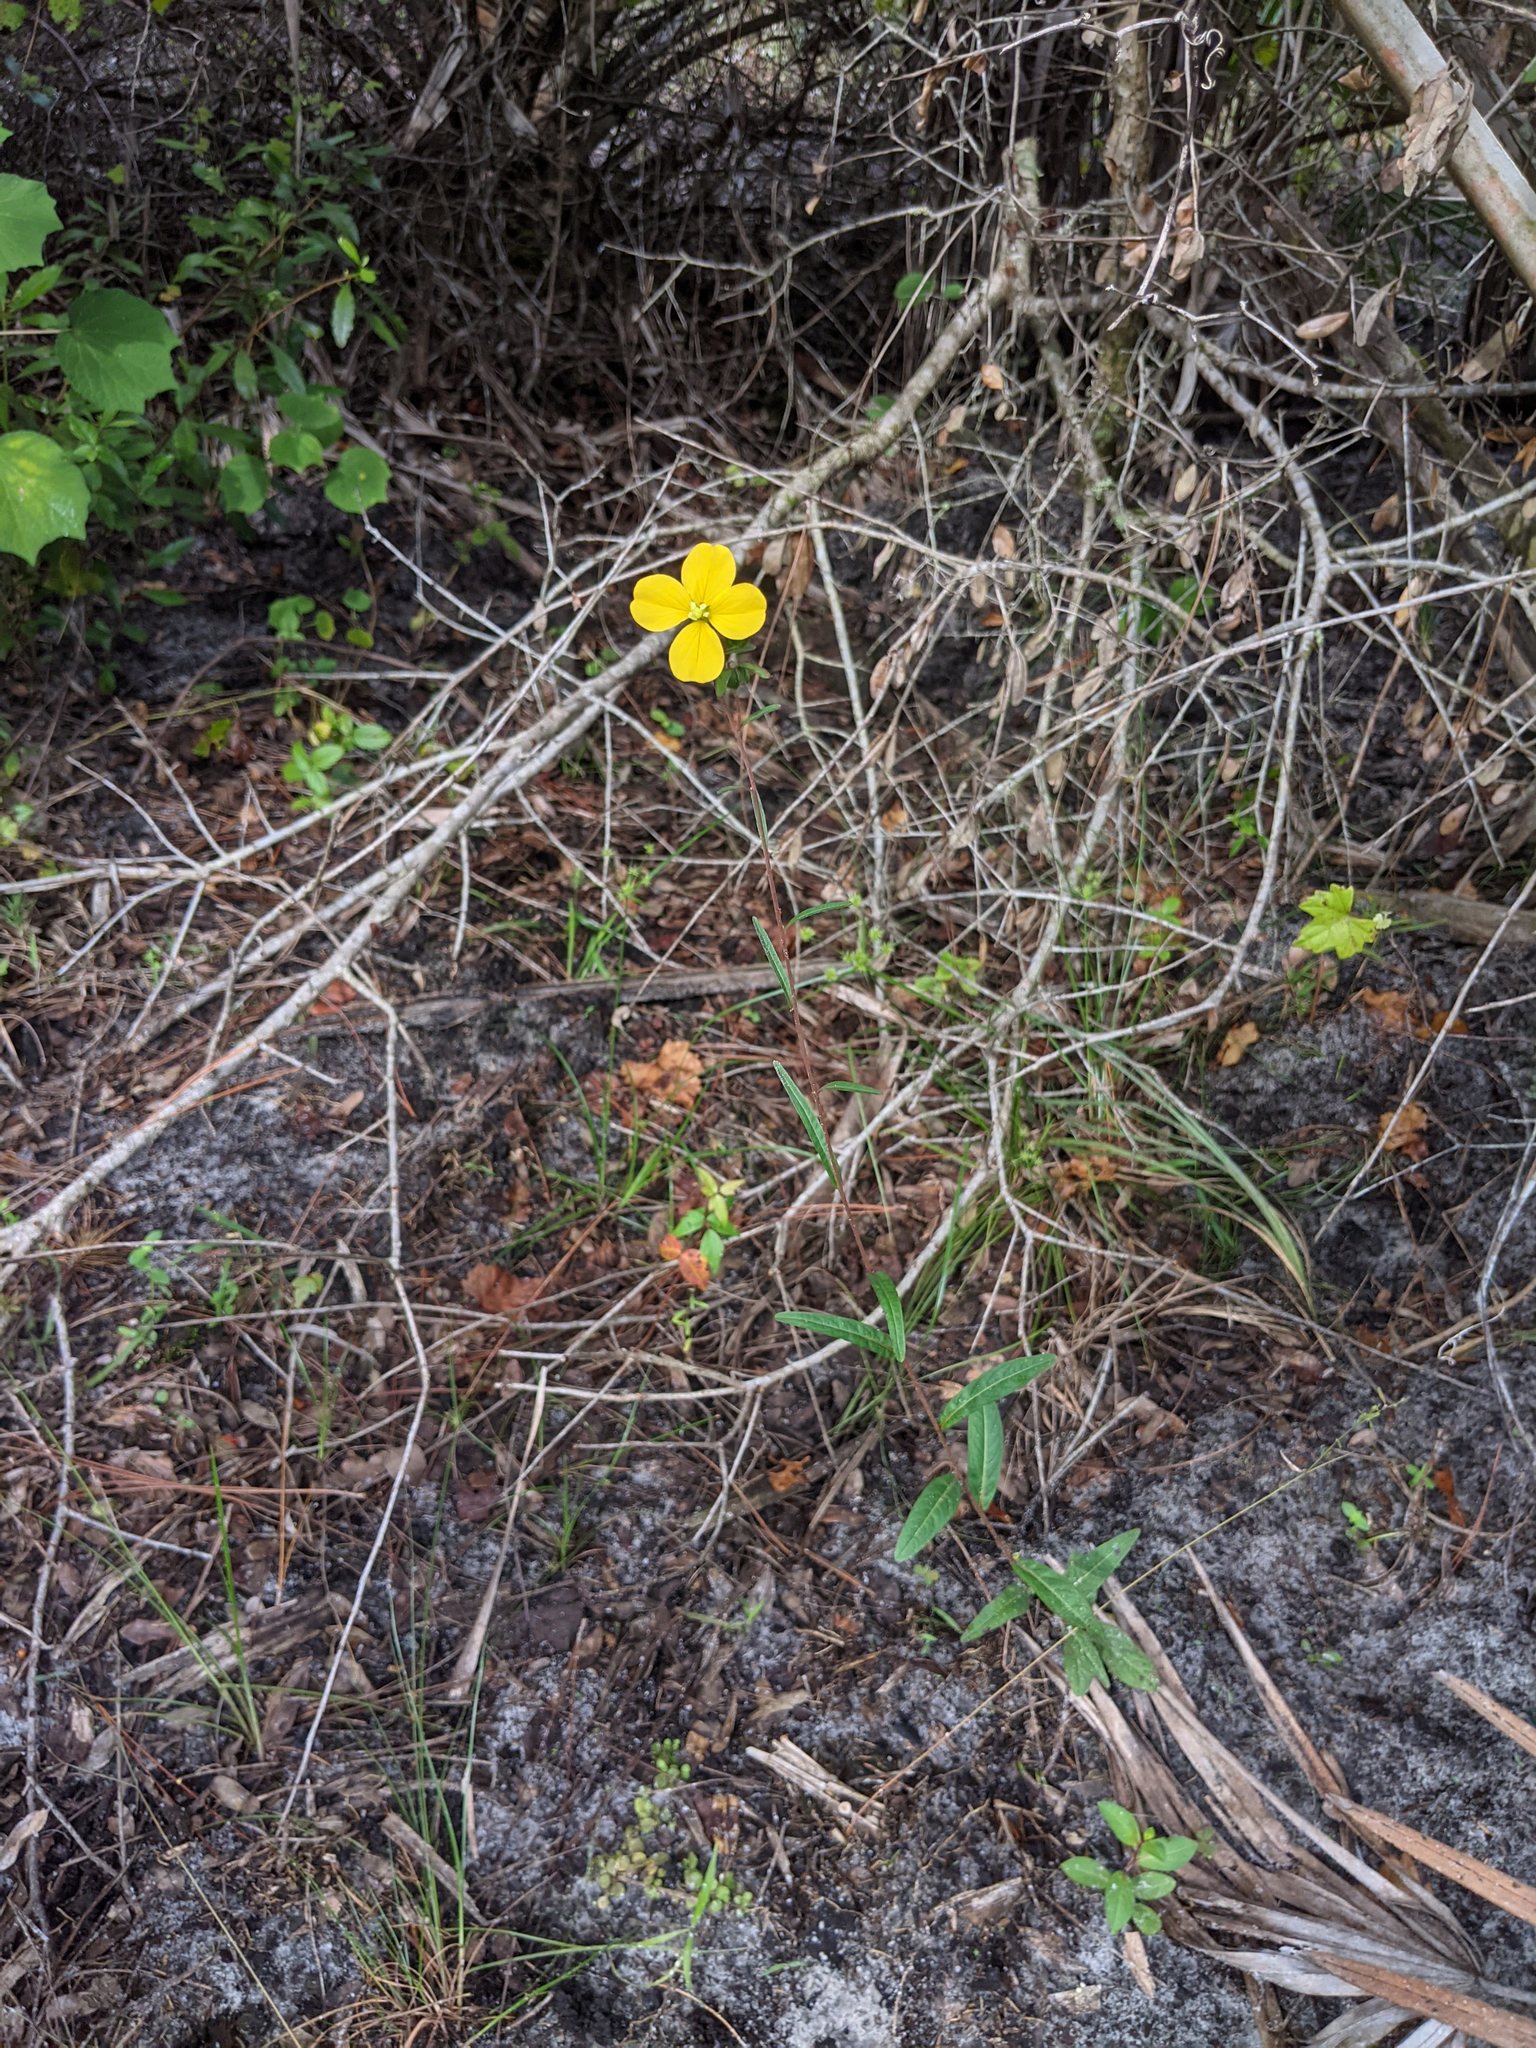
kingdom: Plantae
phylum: Tracheophyta
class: Magnoliopsida
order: Myrtales
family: Onagraceae
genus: Ludwigia
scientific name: Ludwigia maritima
